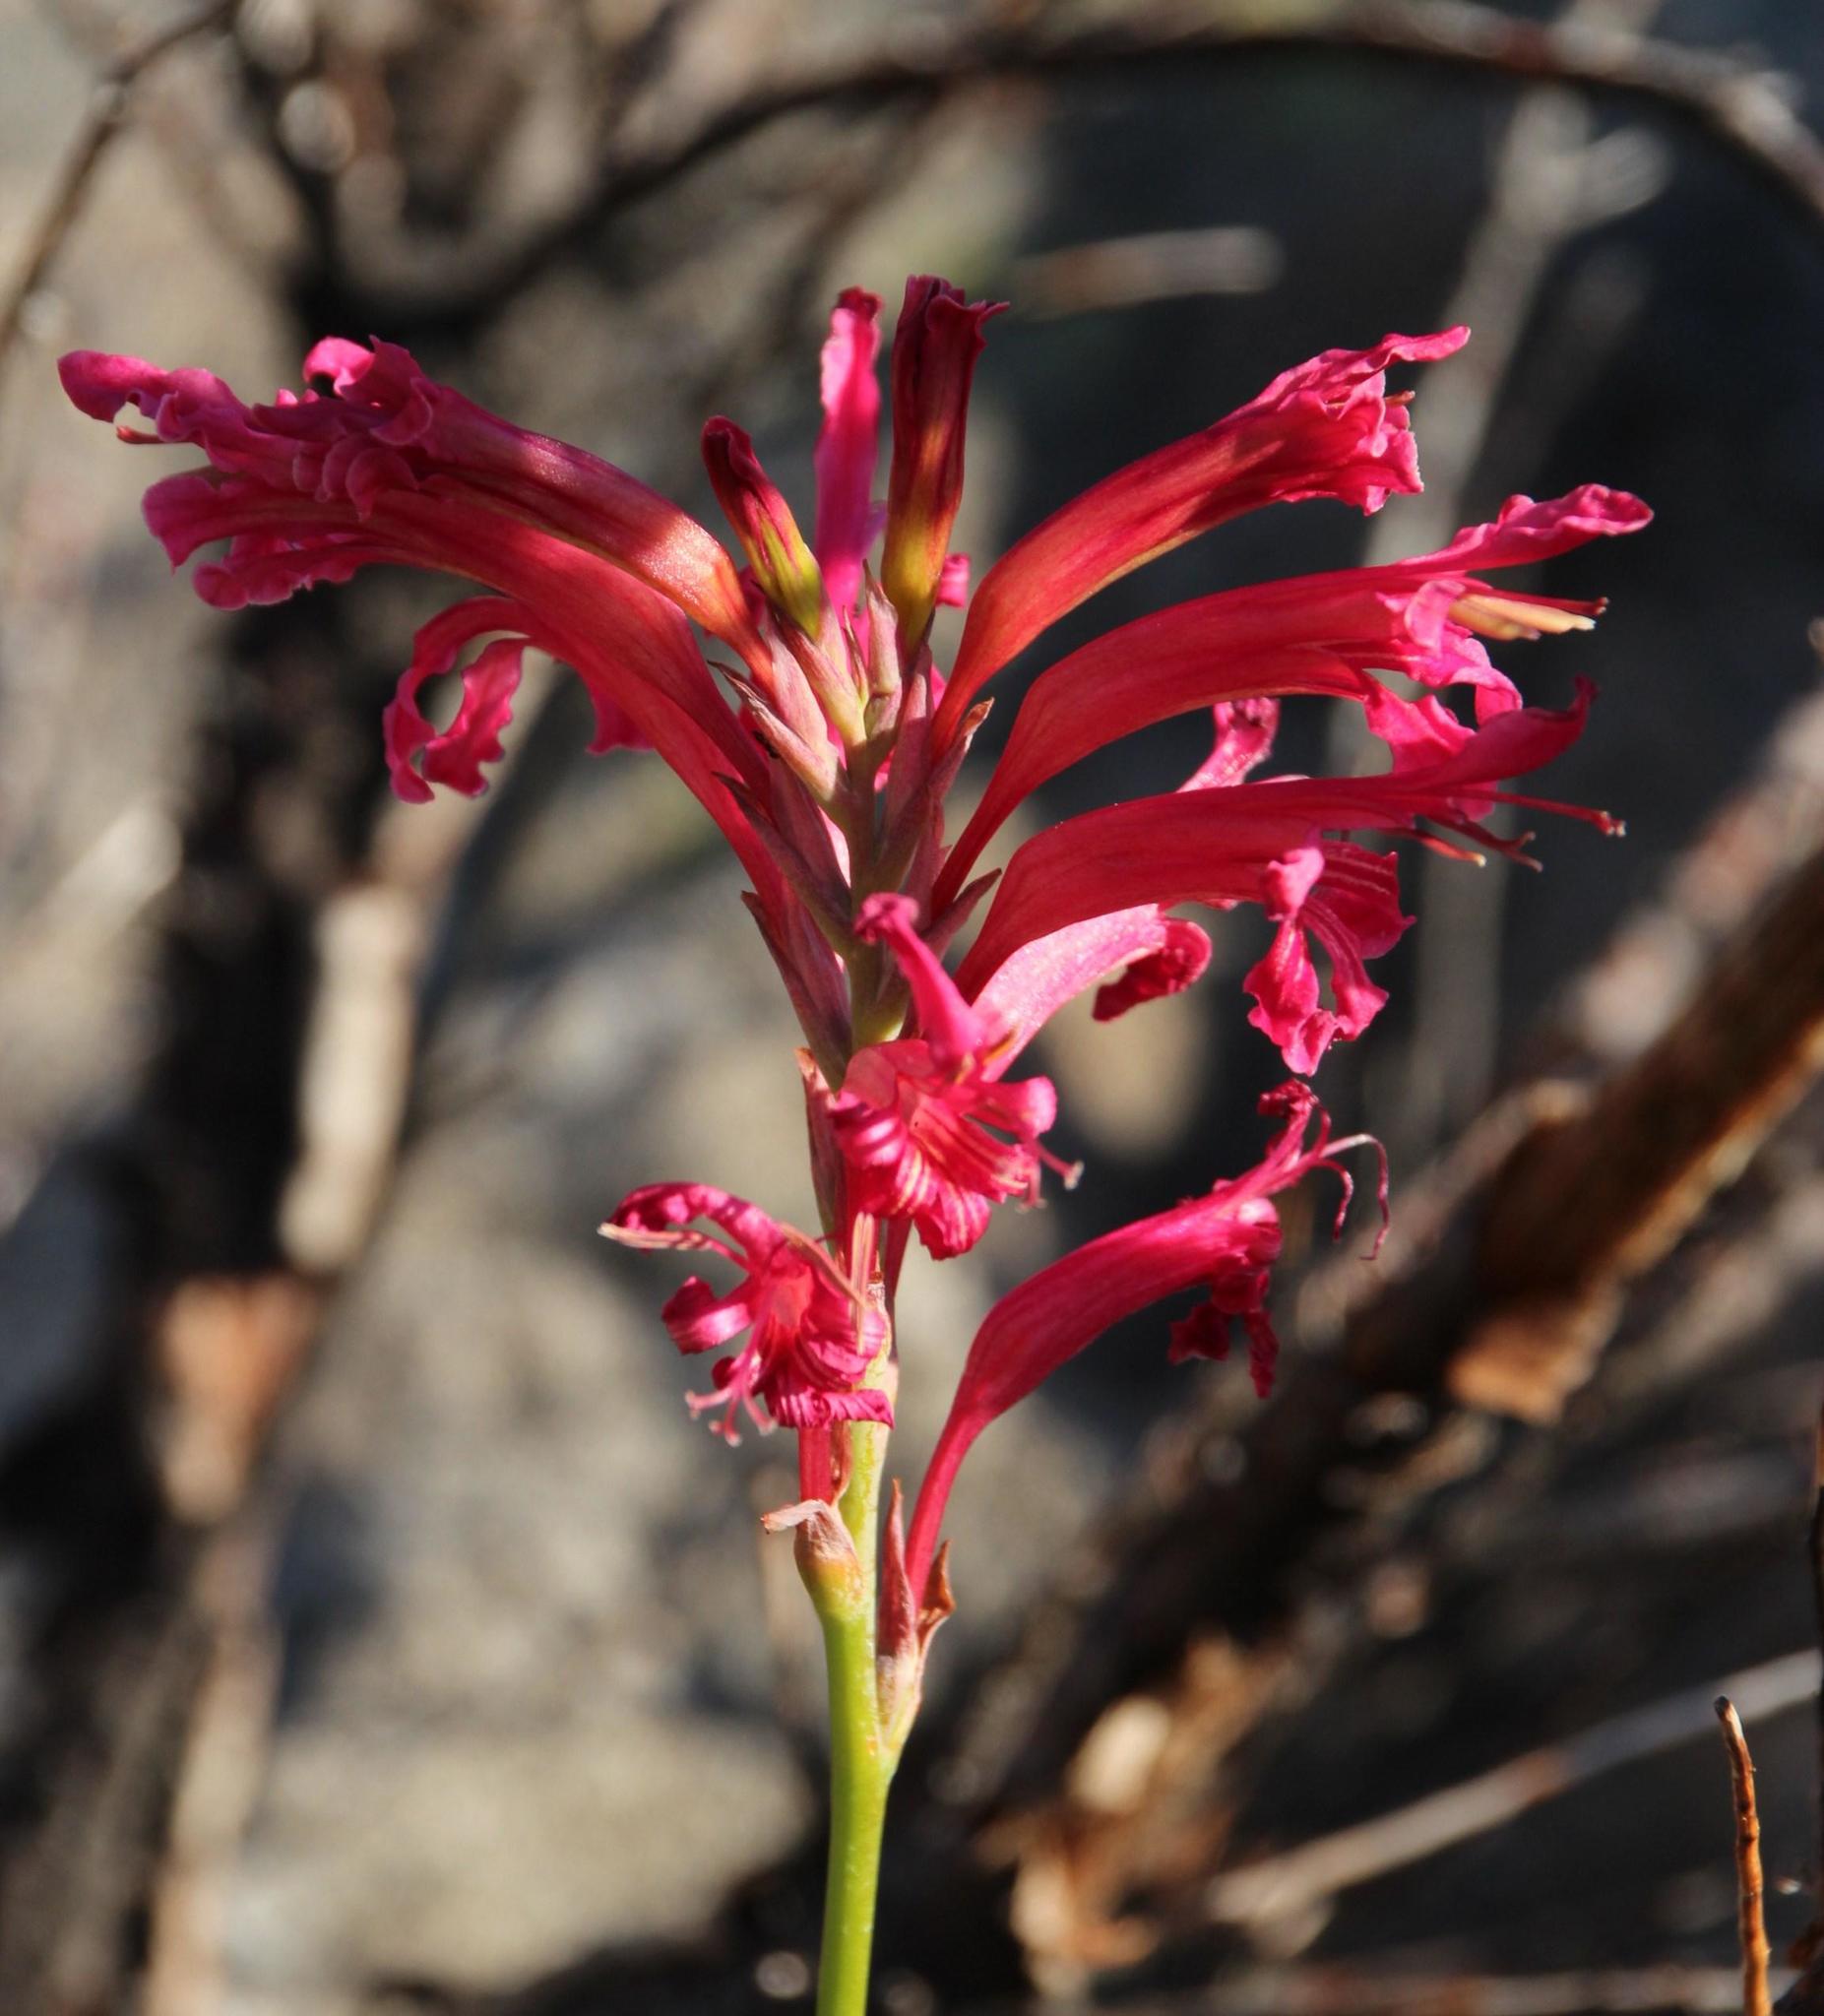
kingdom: Plantae
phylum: Tracheophyta
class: Liliopsida
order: Asparagales
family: Iridaceae
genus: Tritoniopsis
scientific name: Tritoniopsis antholyza
